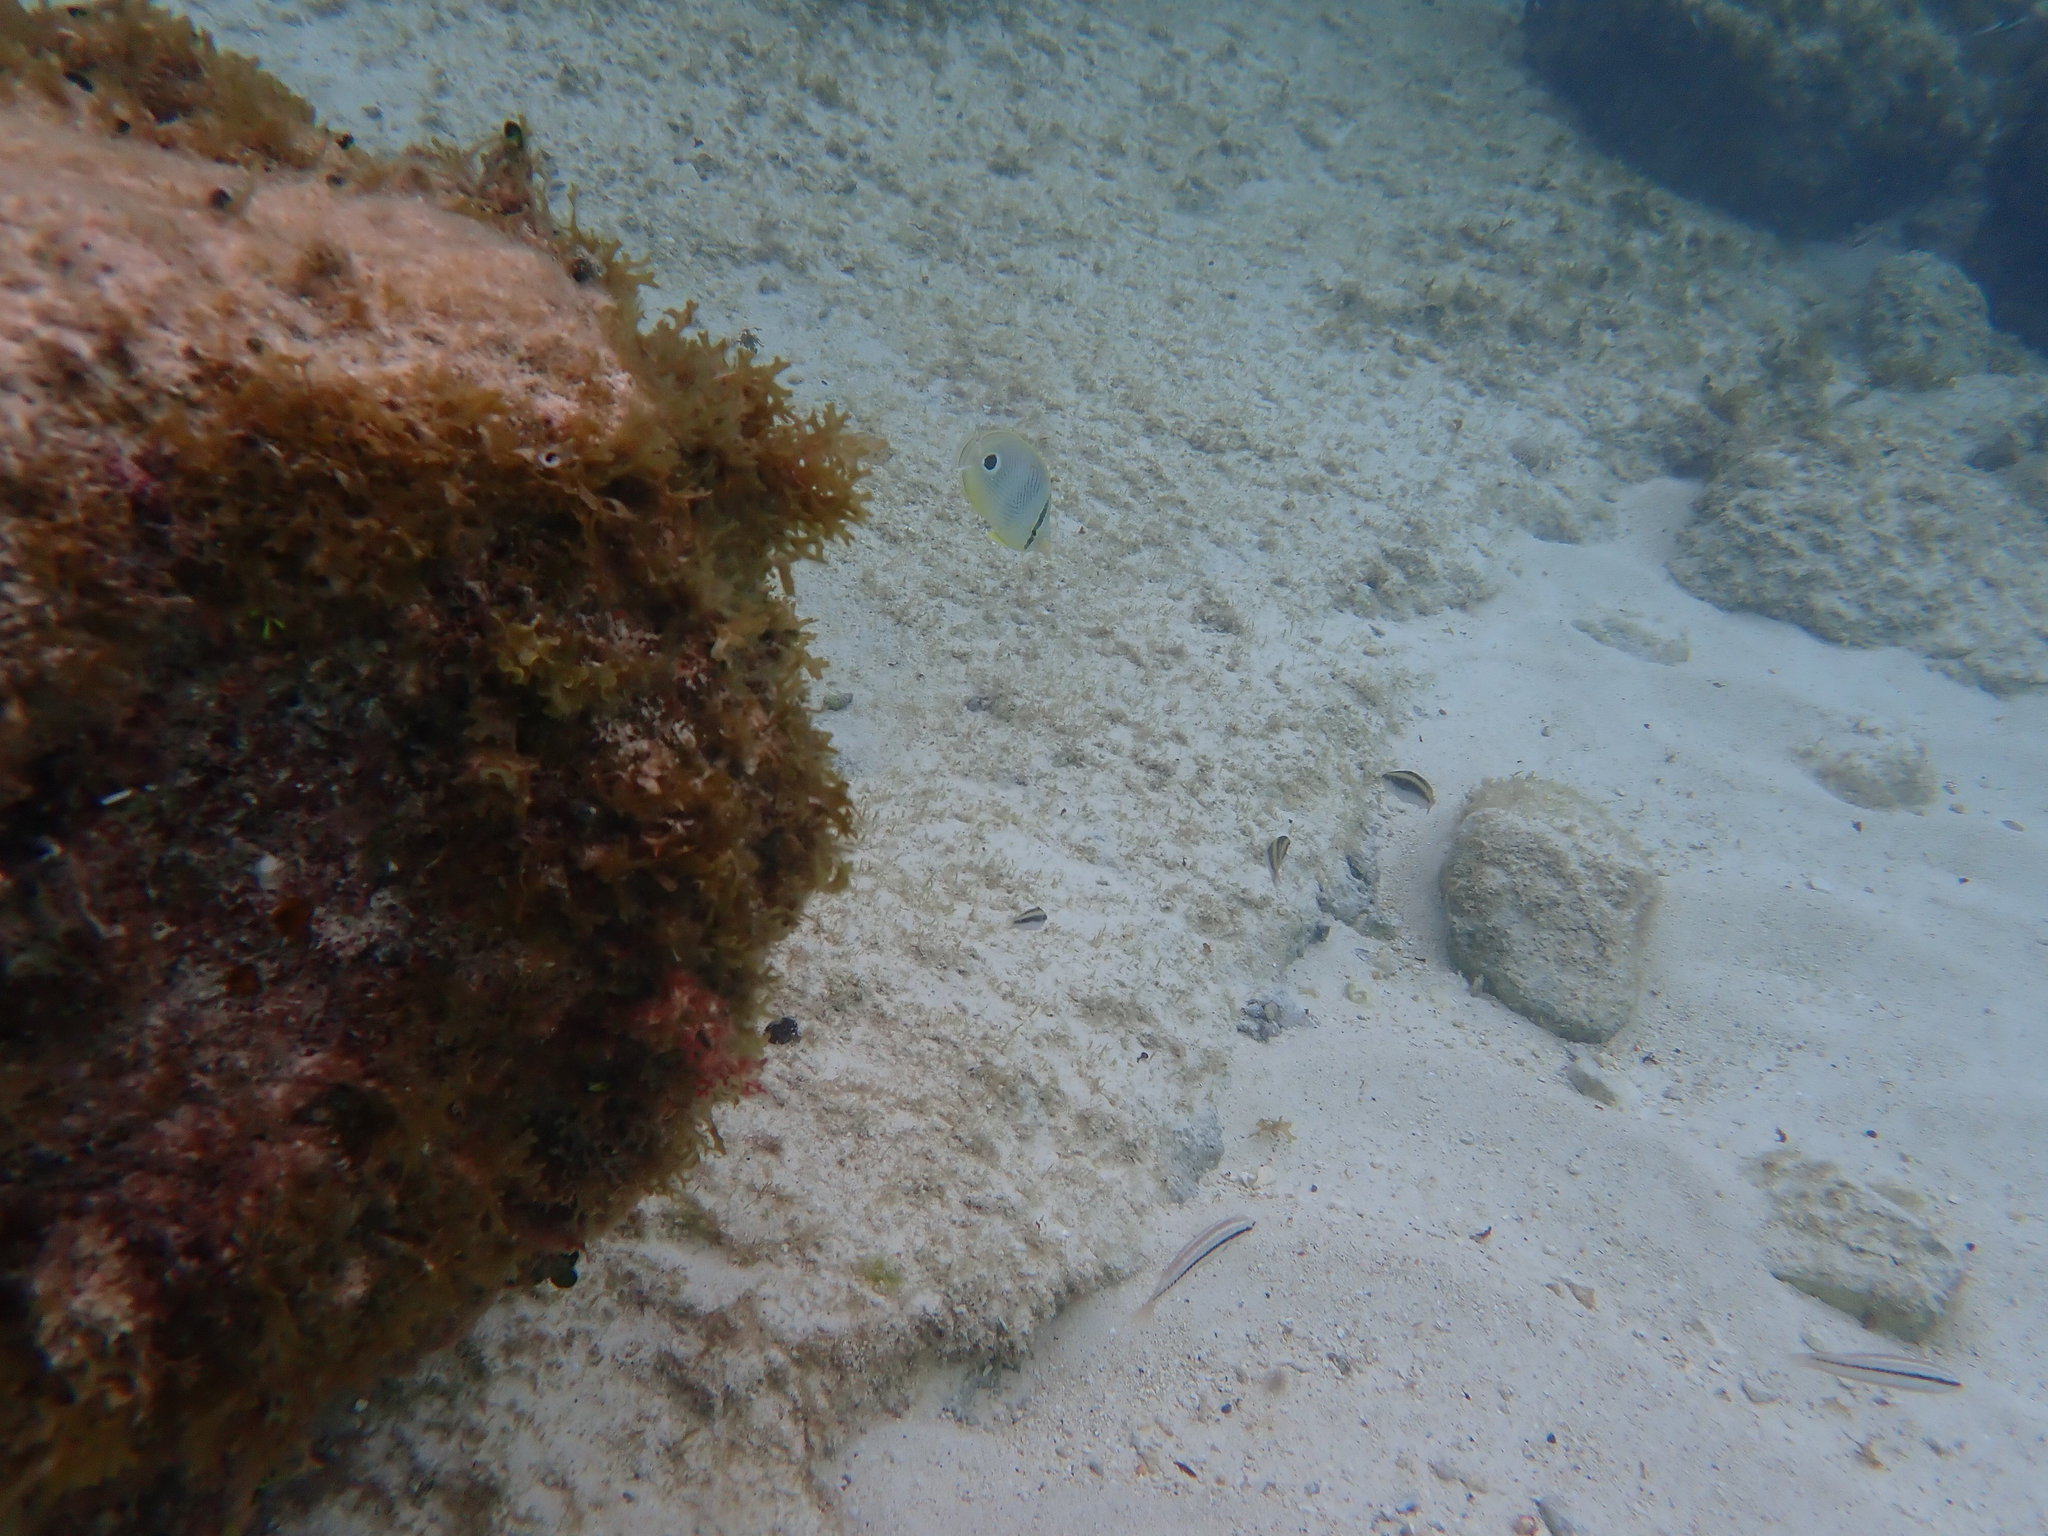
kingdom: Animalia
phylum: Chordata
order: Perciformes
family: Chaetodontidae
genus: Chaetodon
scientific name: Chaetodon capistratus
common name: Kete
